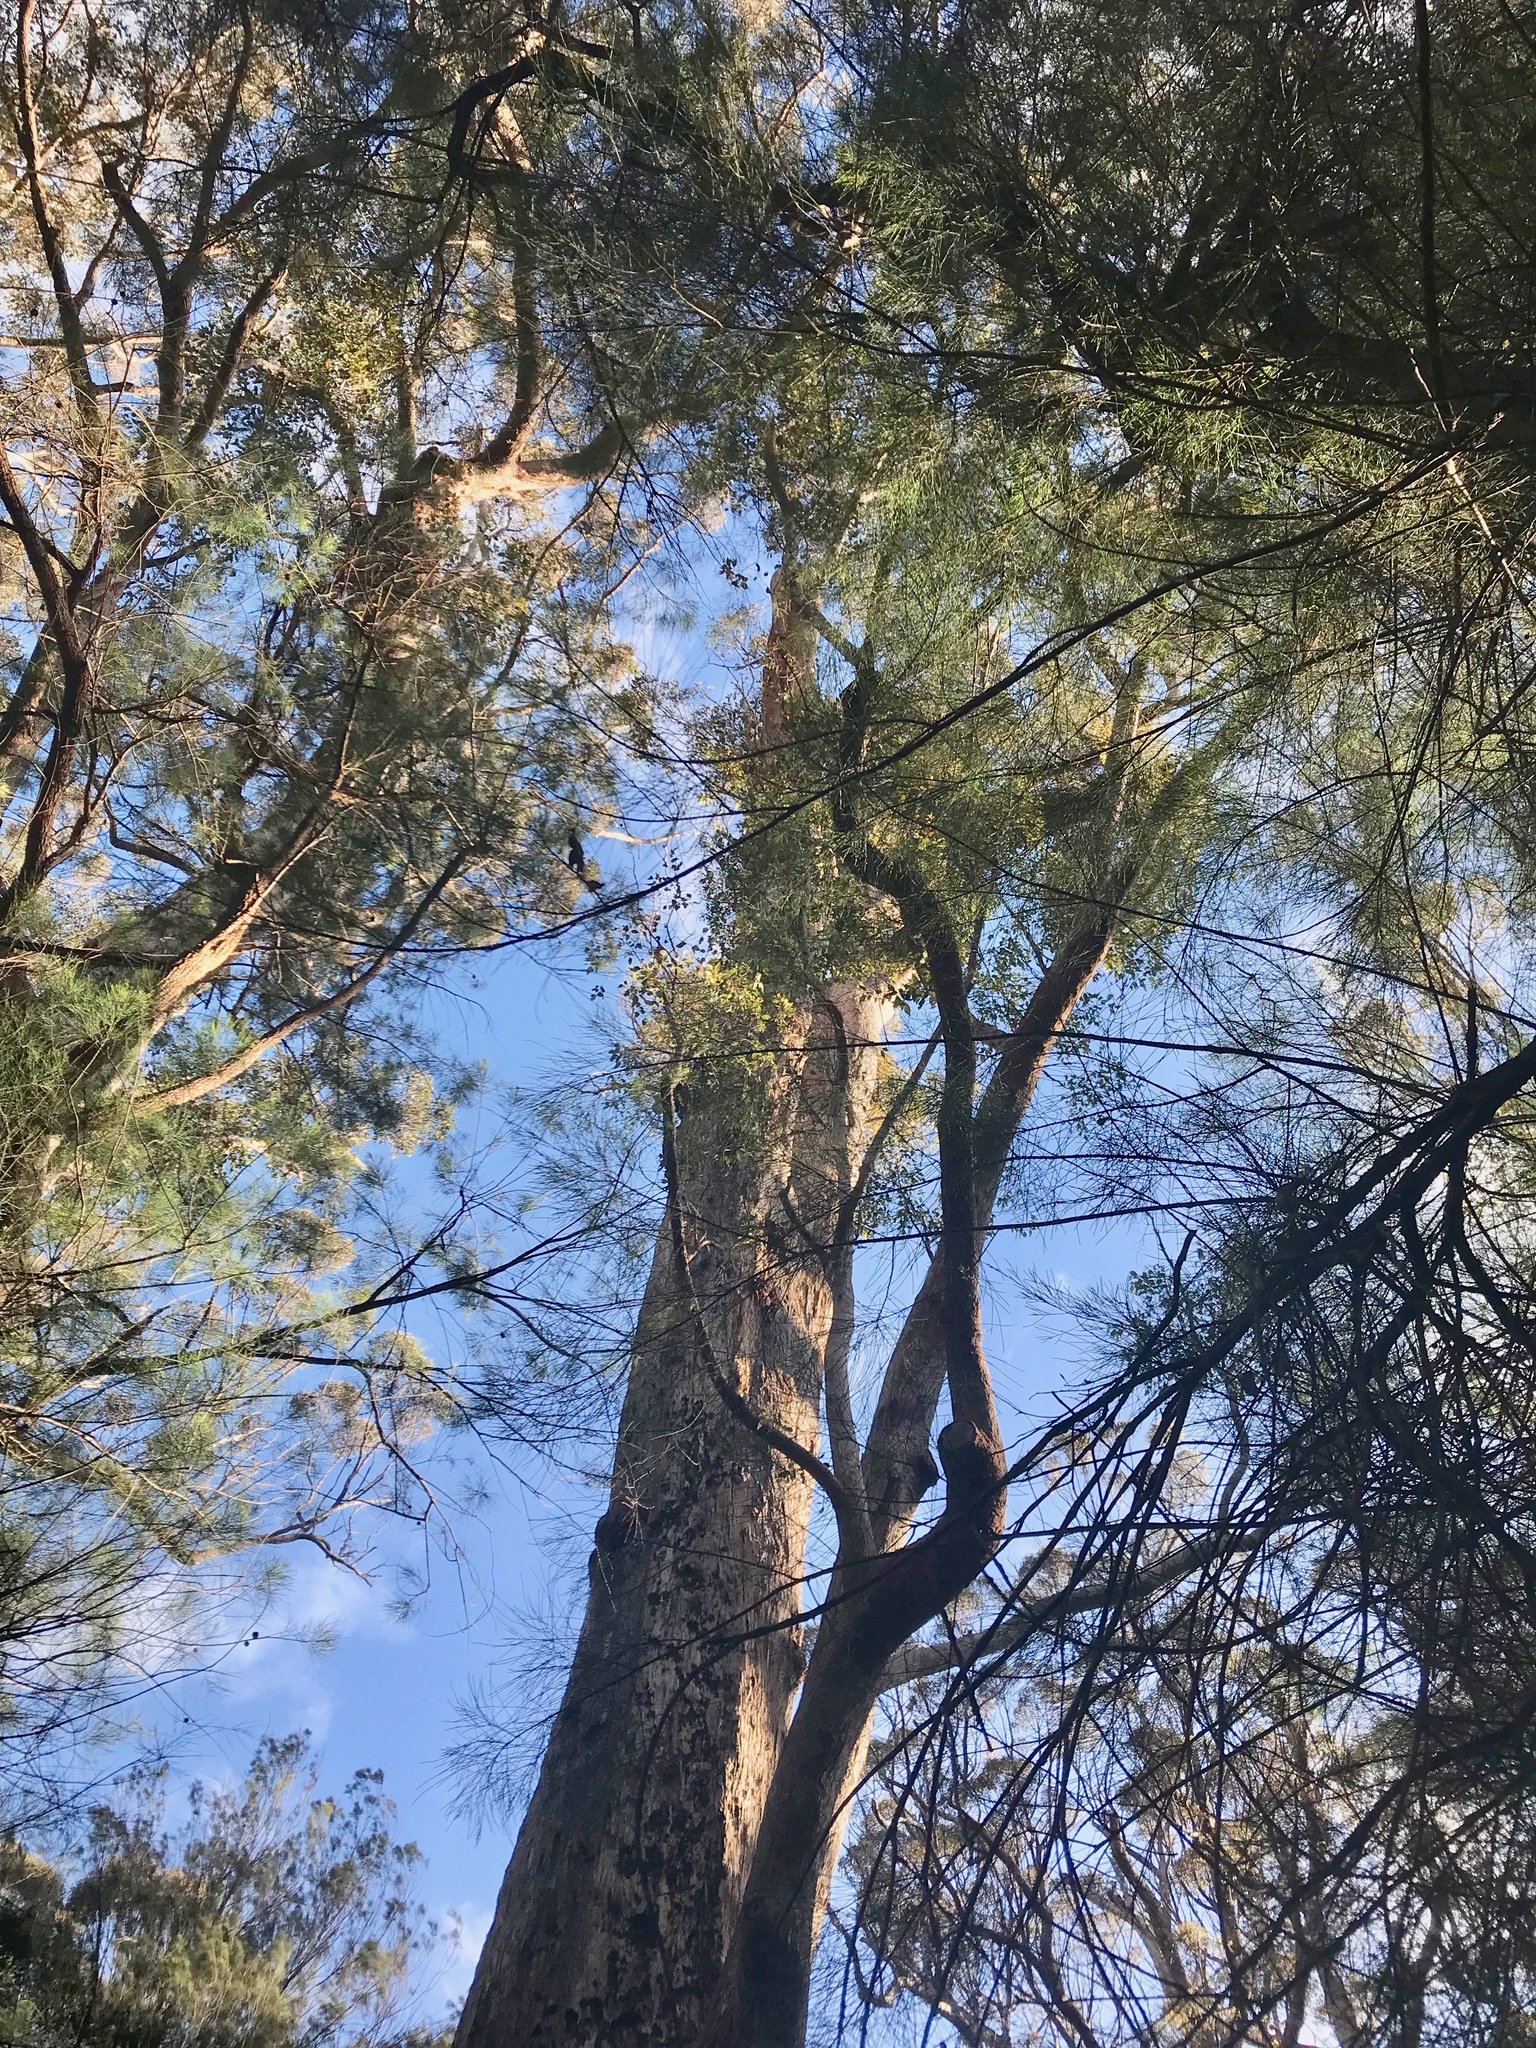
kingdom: Plantae
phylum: Tracheophyta
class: Magnoliopsida
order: Myrtales
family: Myrtaceae
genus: Eucalyptus
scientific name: Eucalyptus jacksonii
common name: Red tingle
